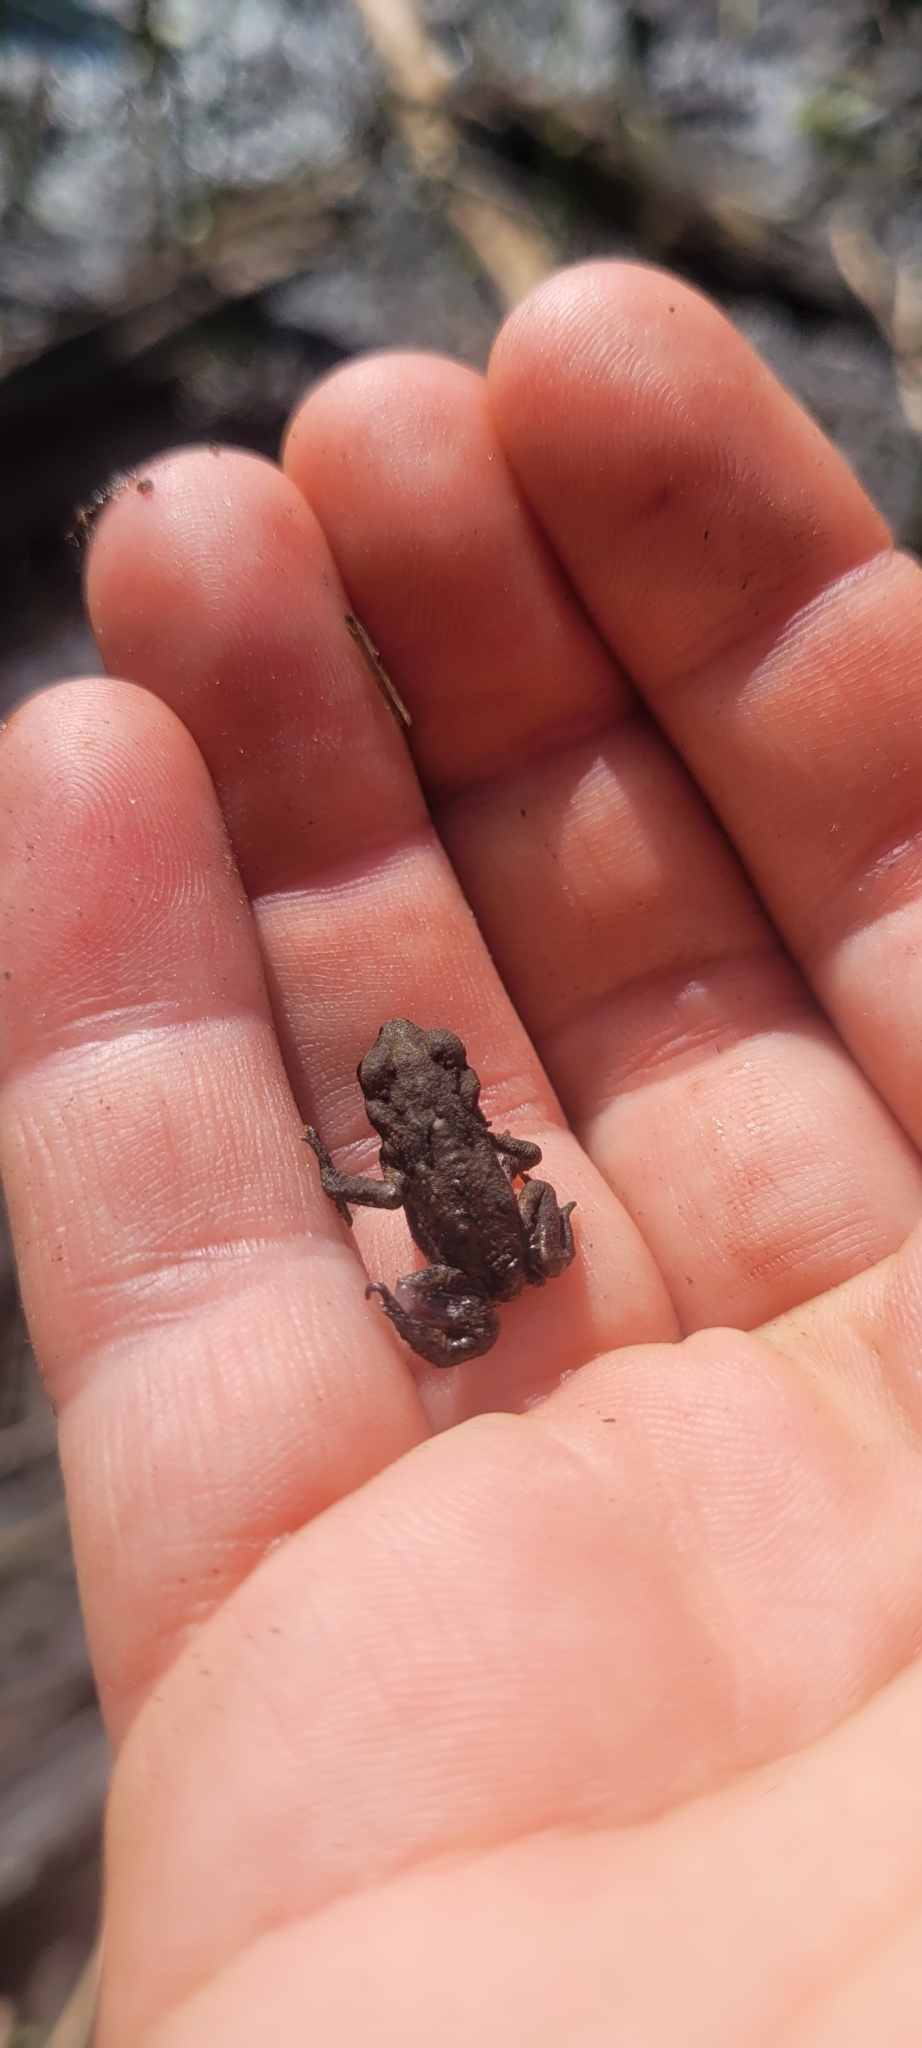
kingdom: Animalia
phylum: Chordata
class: Amphibia
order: Anura
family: Bufonidae
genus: Anaxyrus
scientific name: Anaxyrus boreas
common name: Western toad
